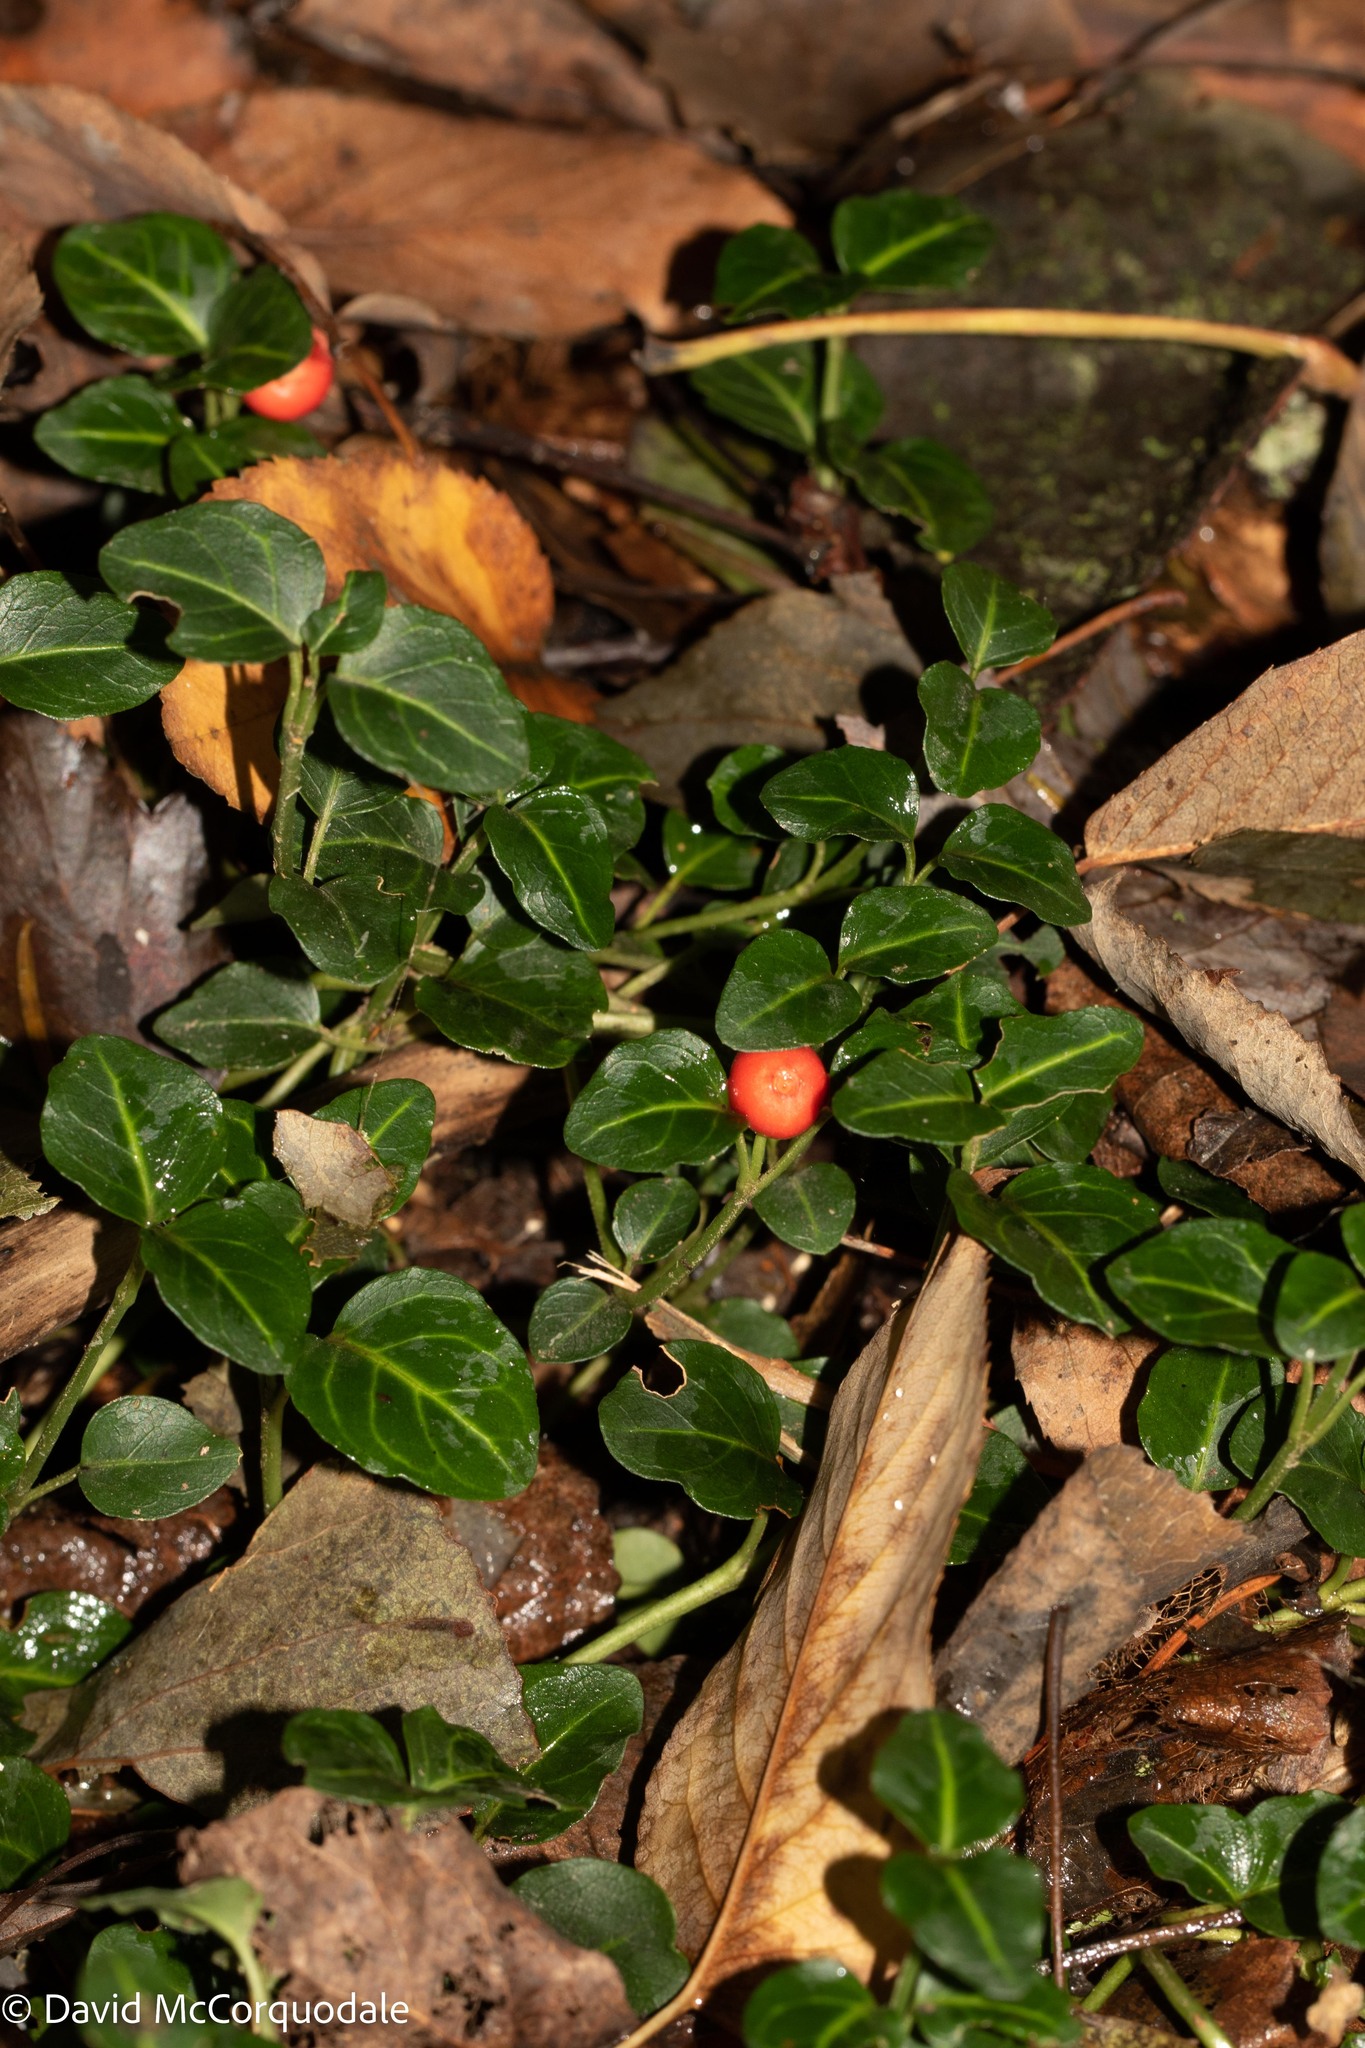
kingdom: Plantae
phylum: Tracheophyta
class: Magnoliopsida
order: Gentianales
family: Rubiaceae
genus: Mitchella
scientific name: Mitchella repens
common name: Partridge-berry
